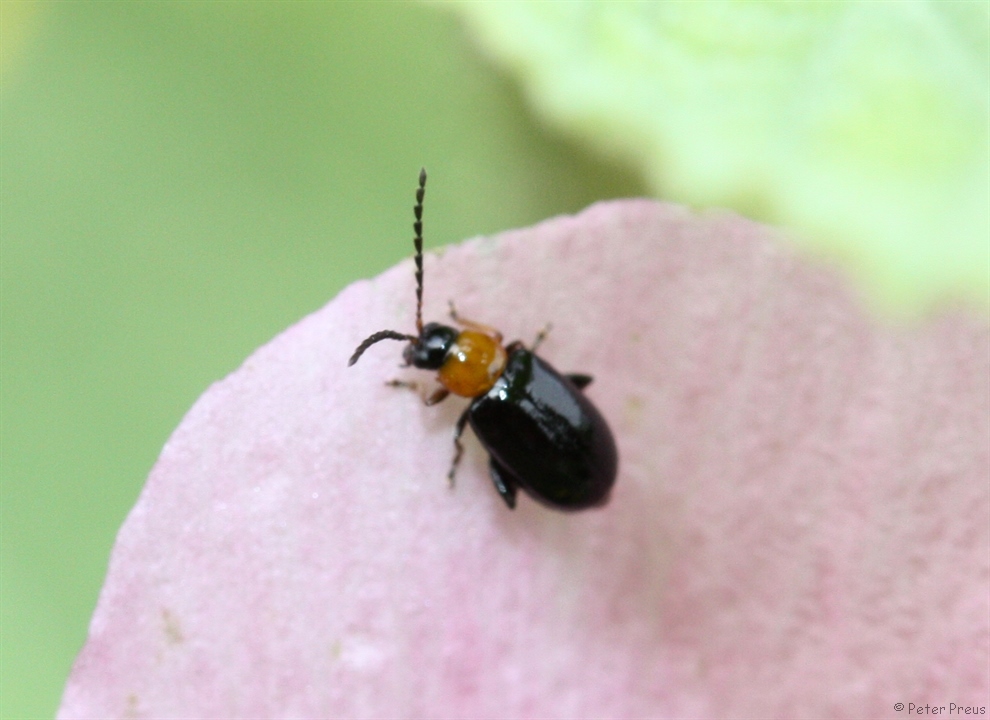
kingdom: Animalia
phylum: Arthropoda
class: Insecta
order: Coleoptera
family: Chrysomelidae
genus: Luperomorpha
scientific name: Luperomorpha xanthodera
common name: Rose flea beetle
